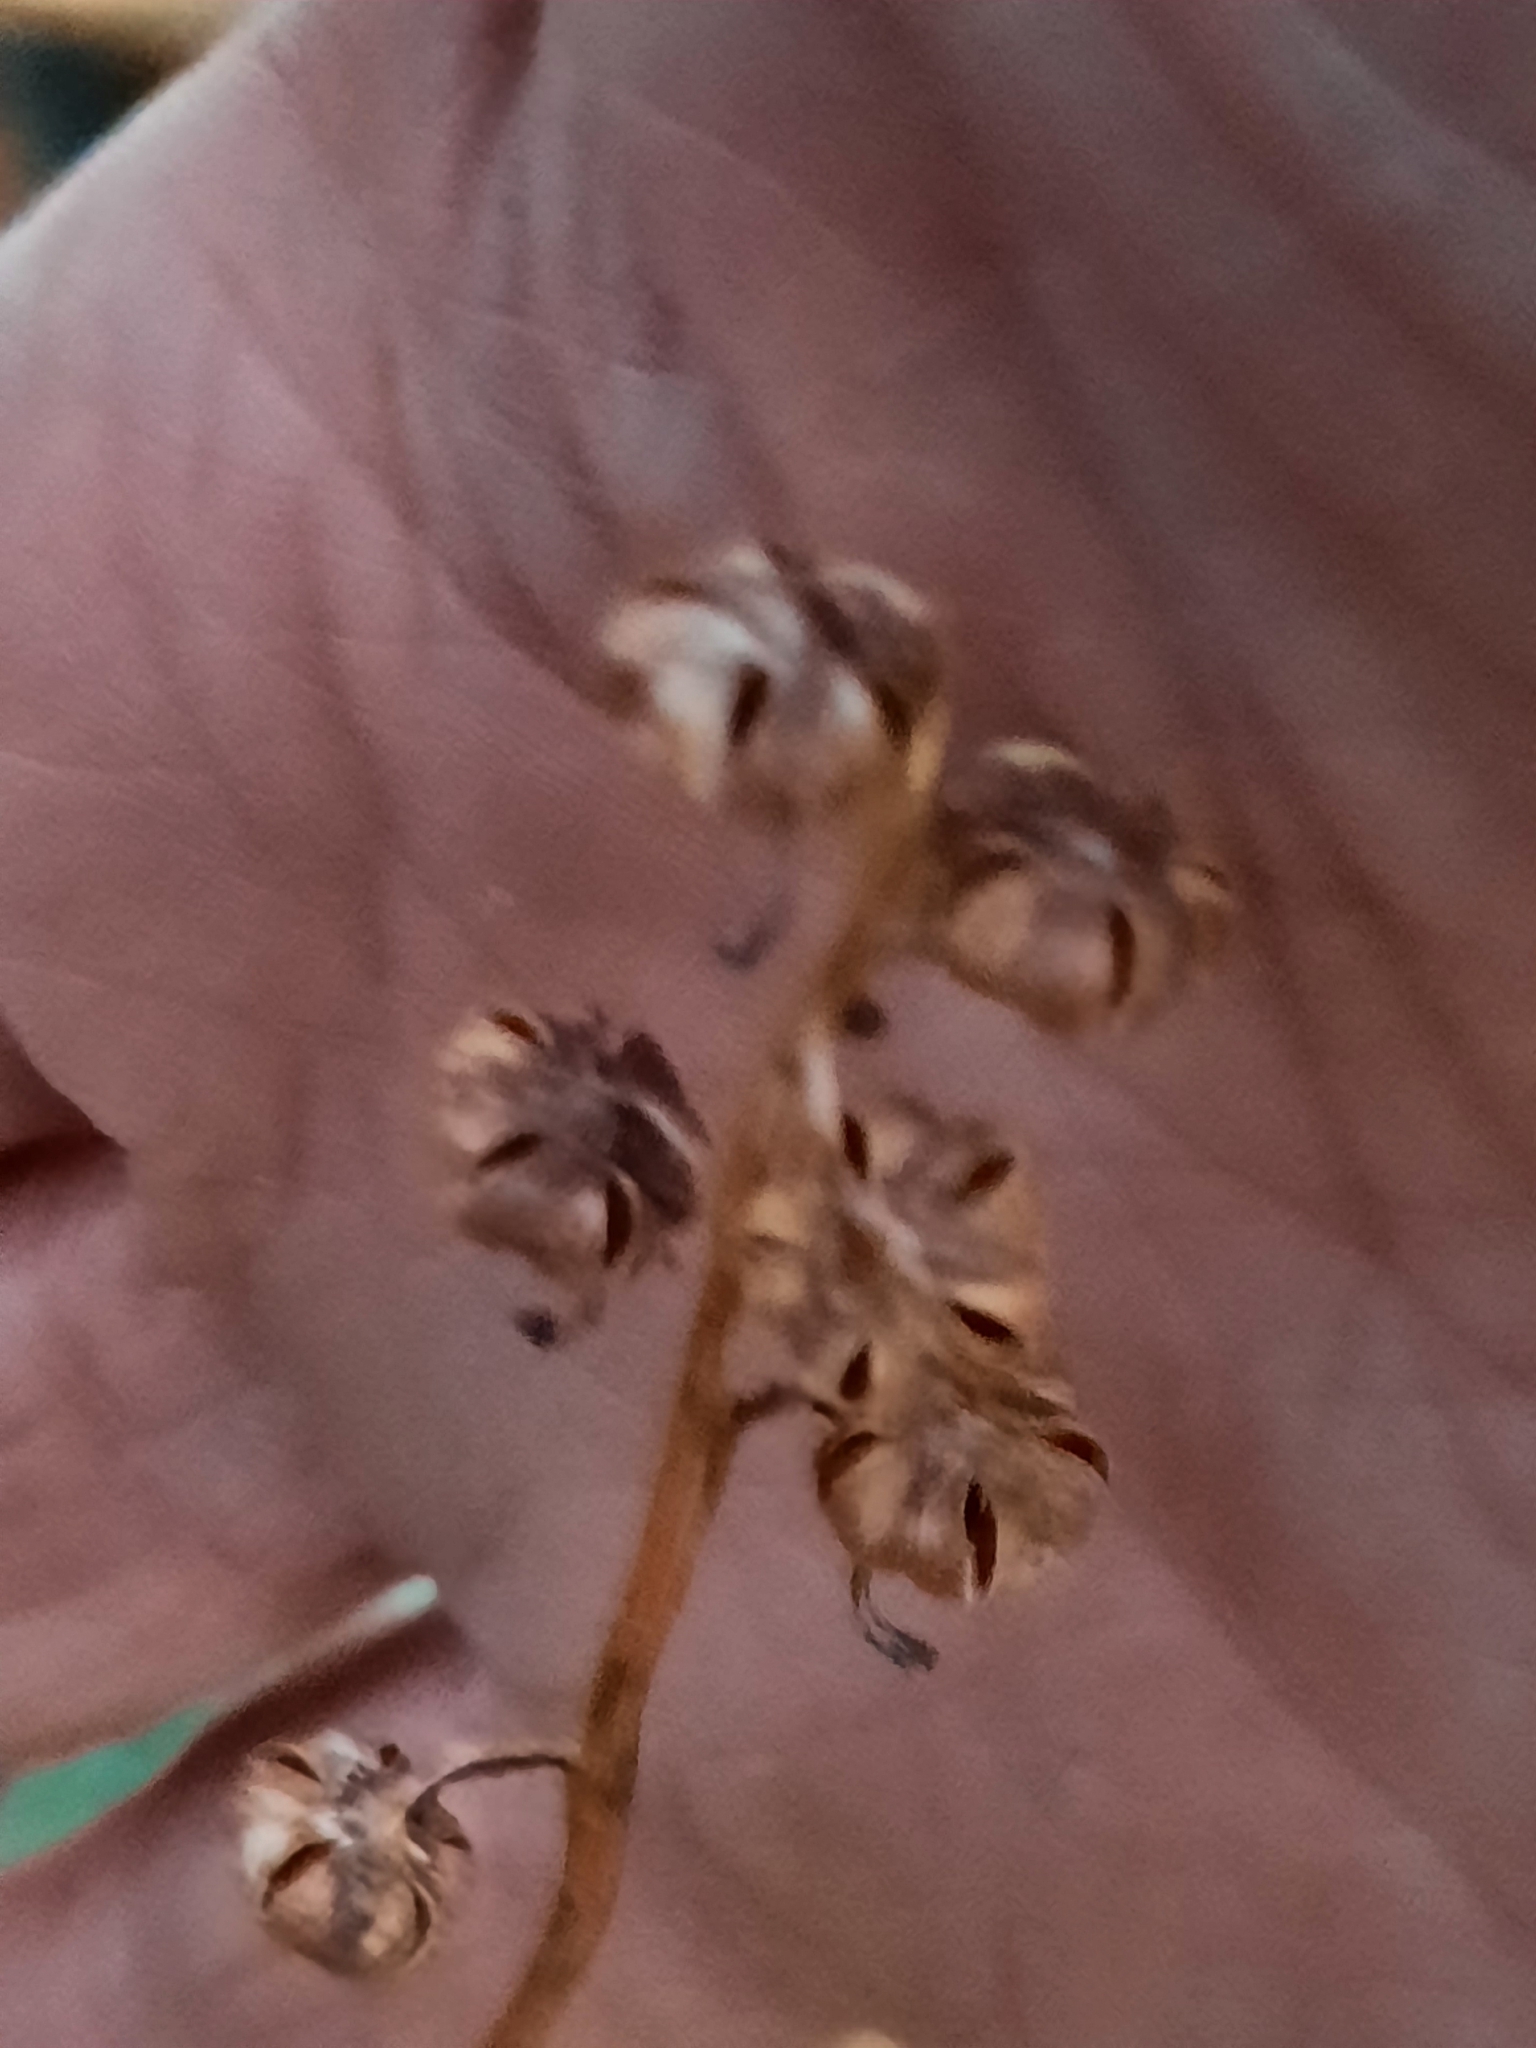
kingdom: Plantae
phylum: Tracheophyta
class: Magnoliopsida
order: Ericales
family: Ericaceae
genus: Pyrola
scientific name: Pyrola americana
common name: American wintergreen
